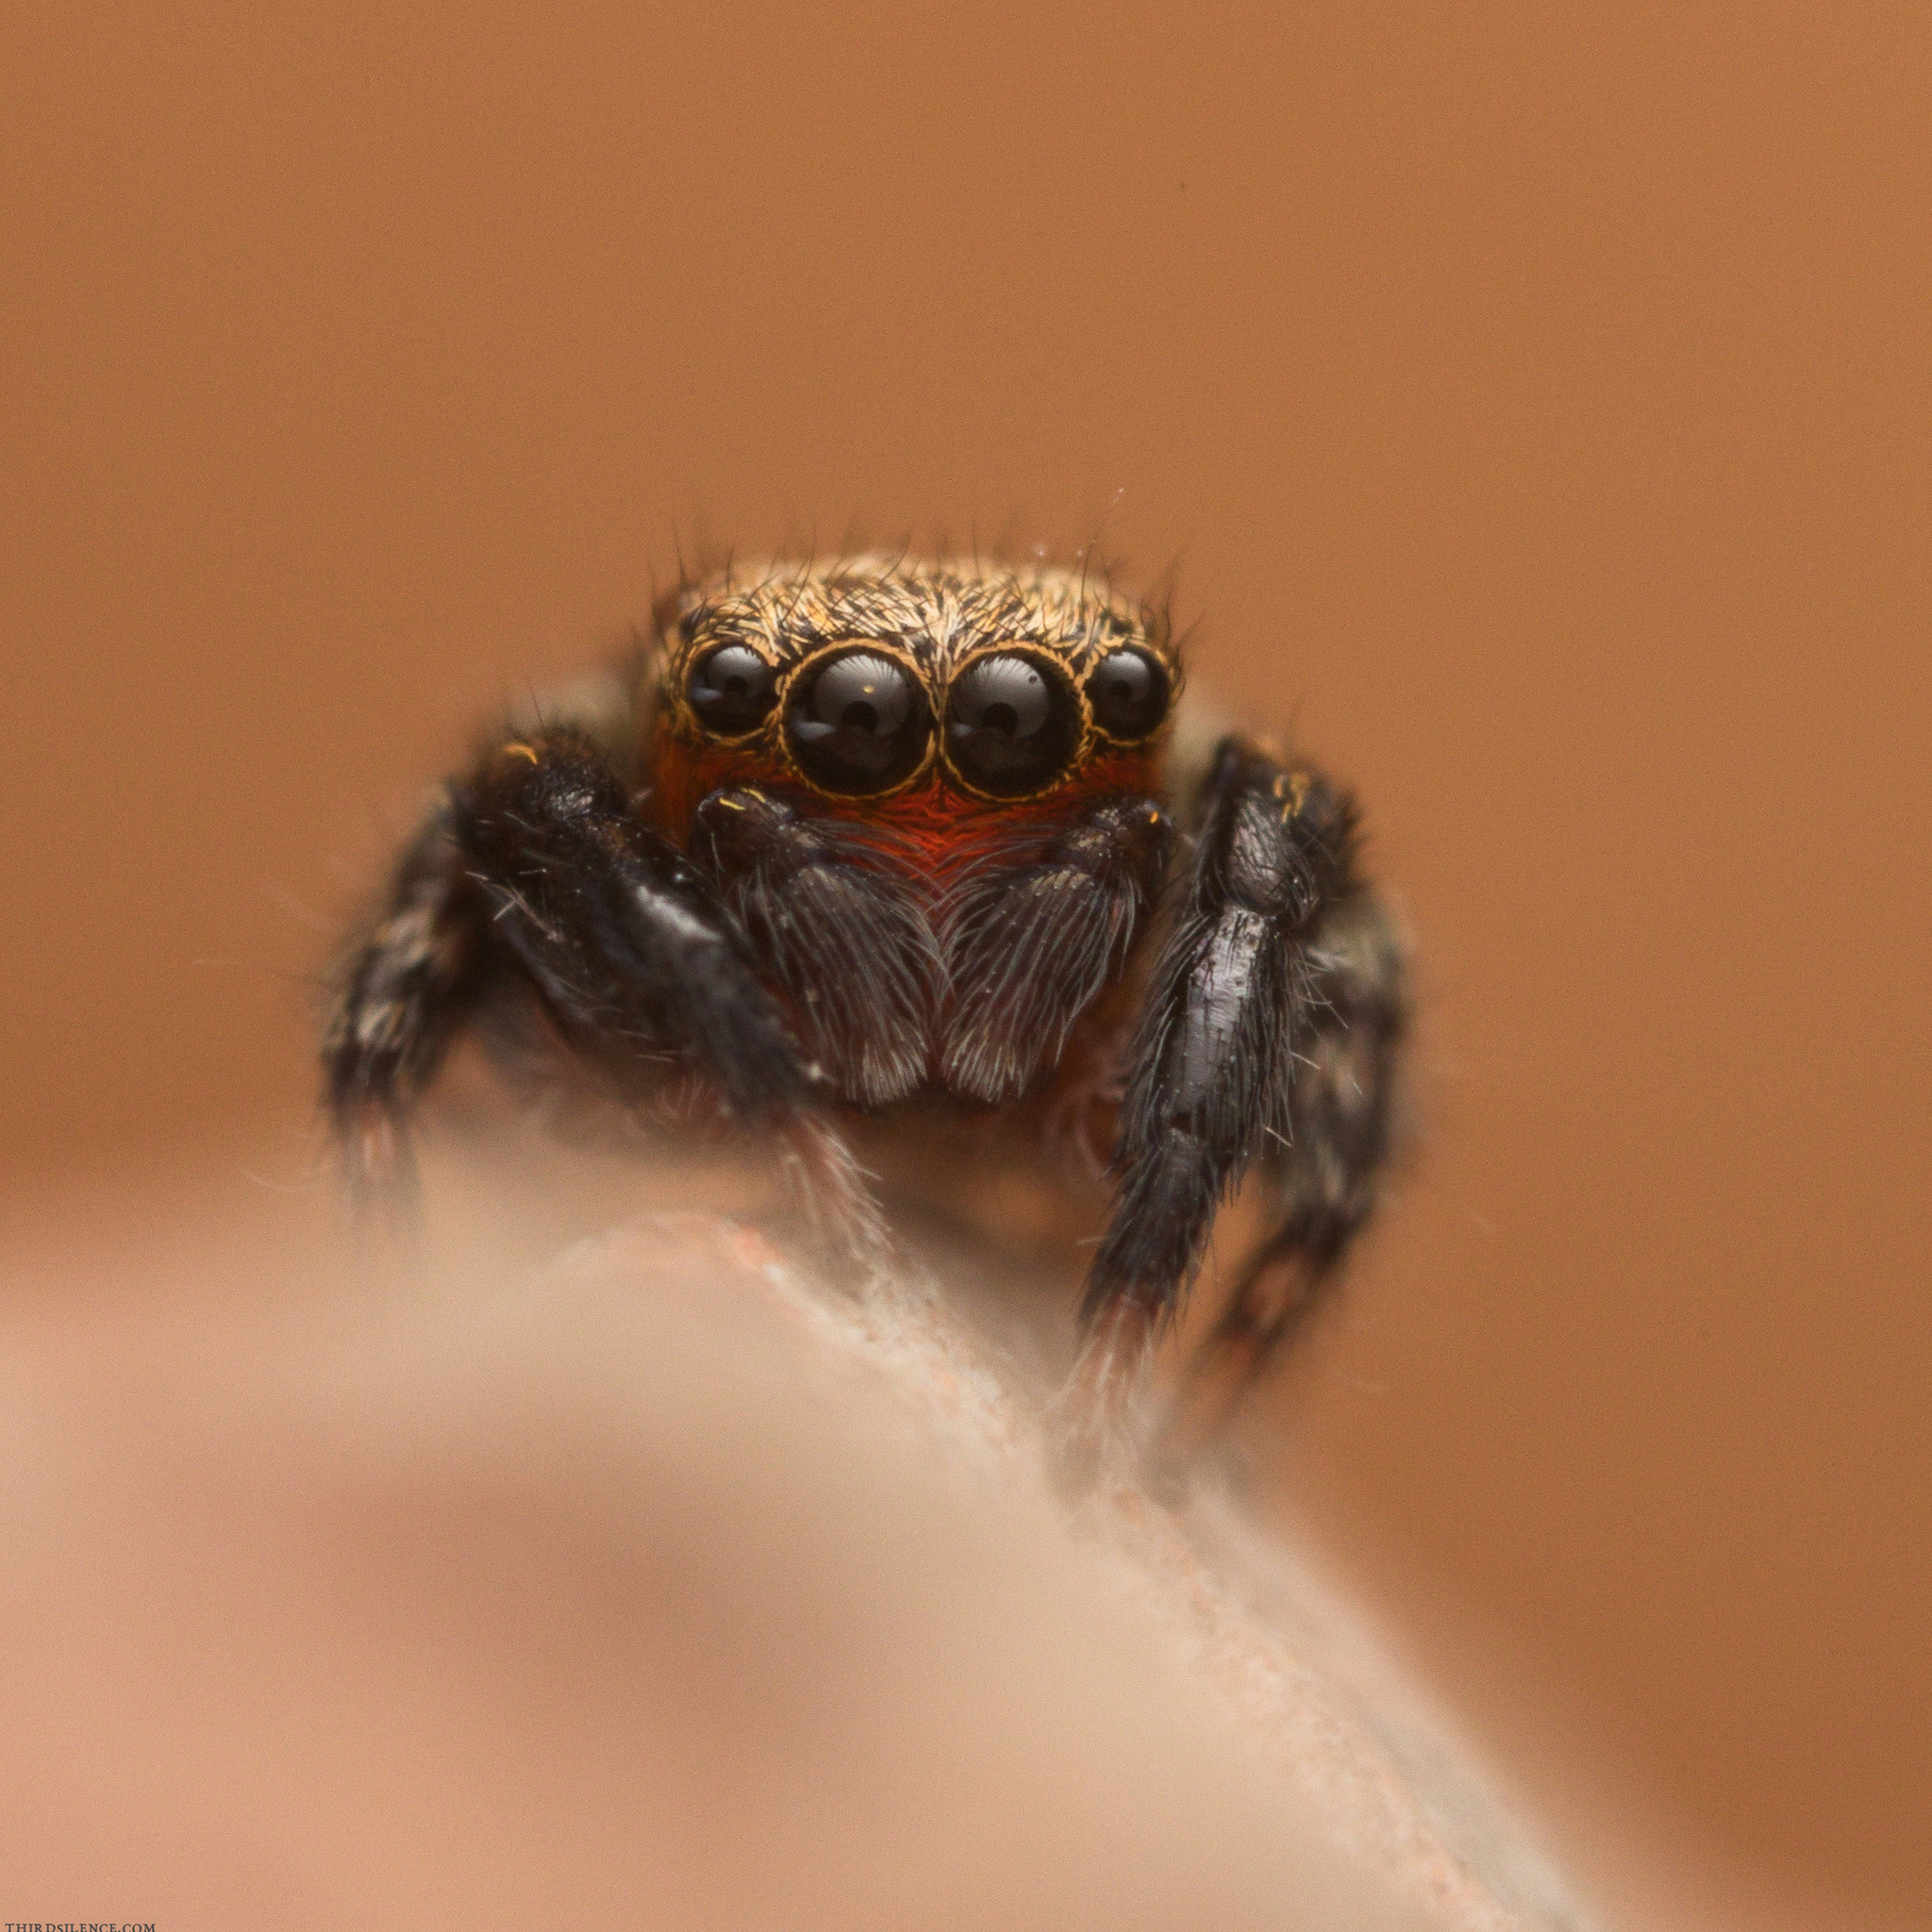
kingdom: Animalia
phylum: Arthropoda
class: Arachnida
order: Araneae
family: Salticidae
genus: Euophrys
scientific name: Euophrys rufibarbis
